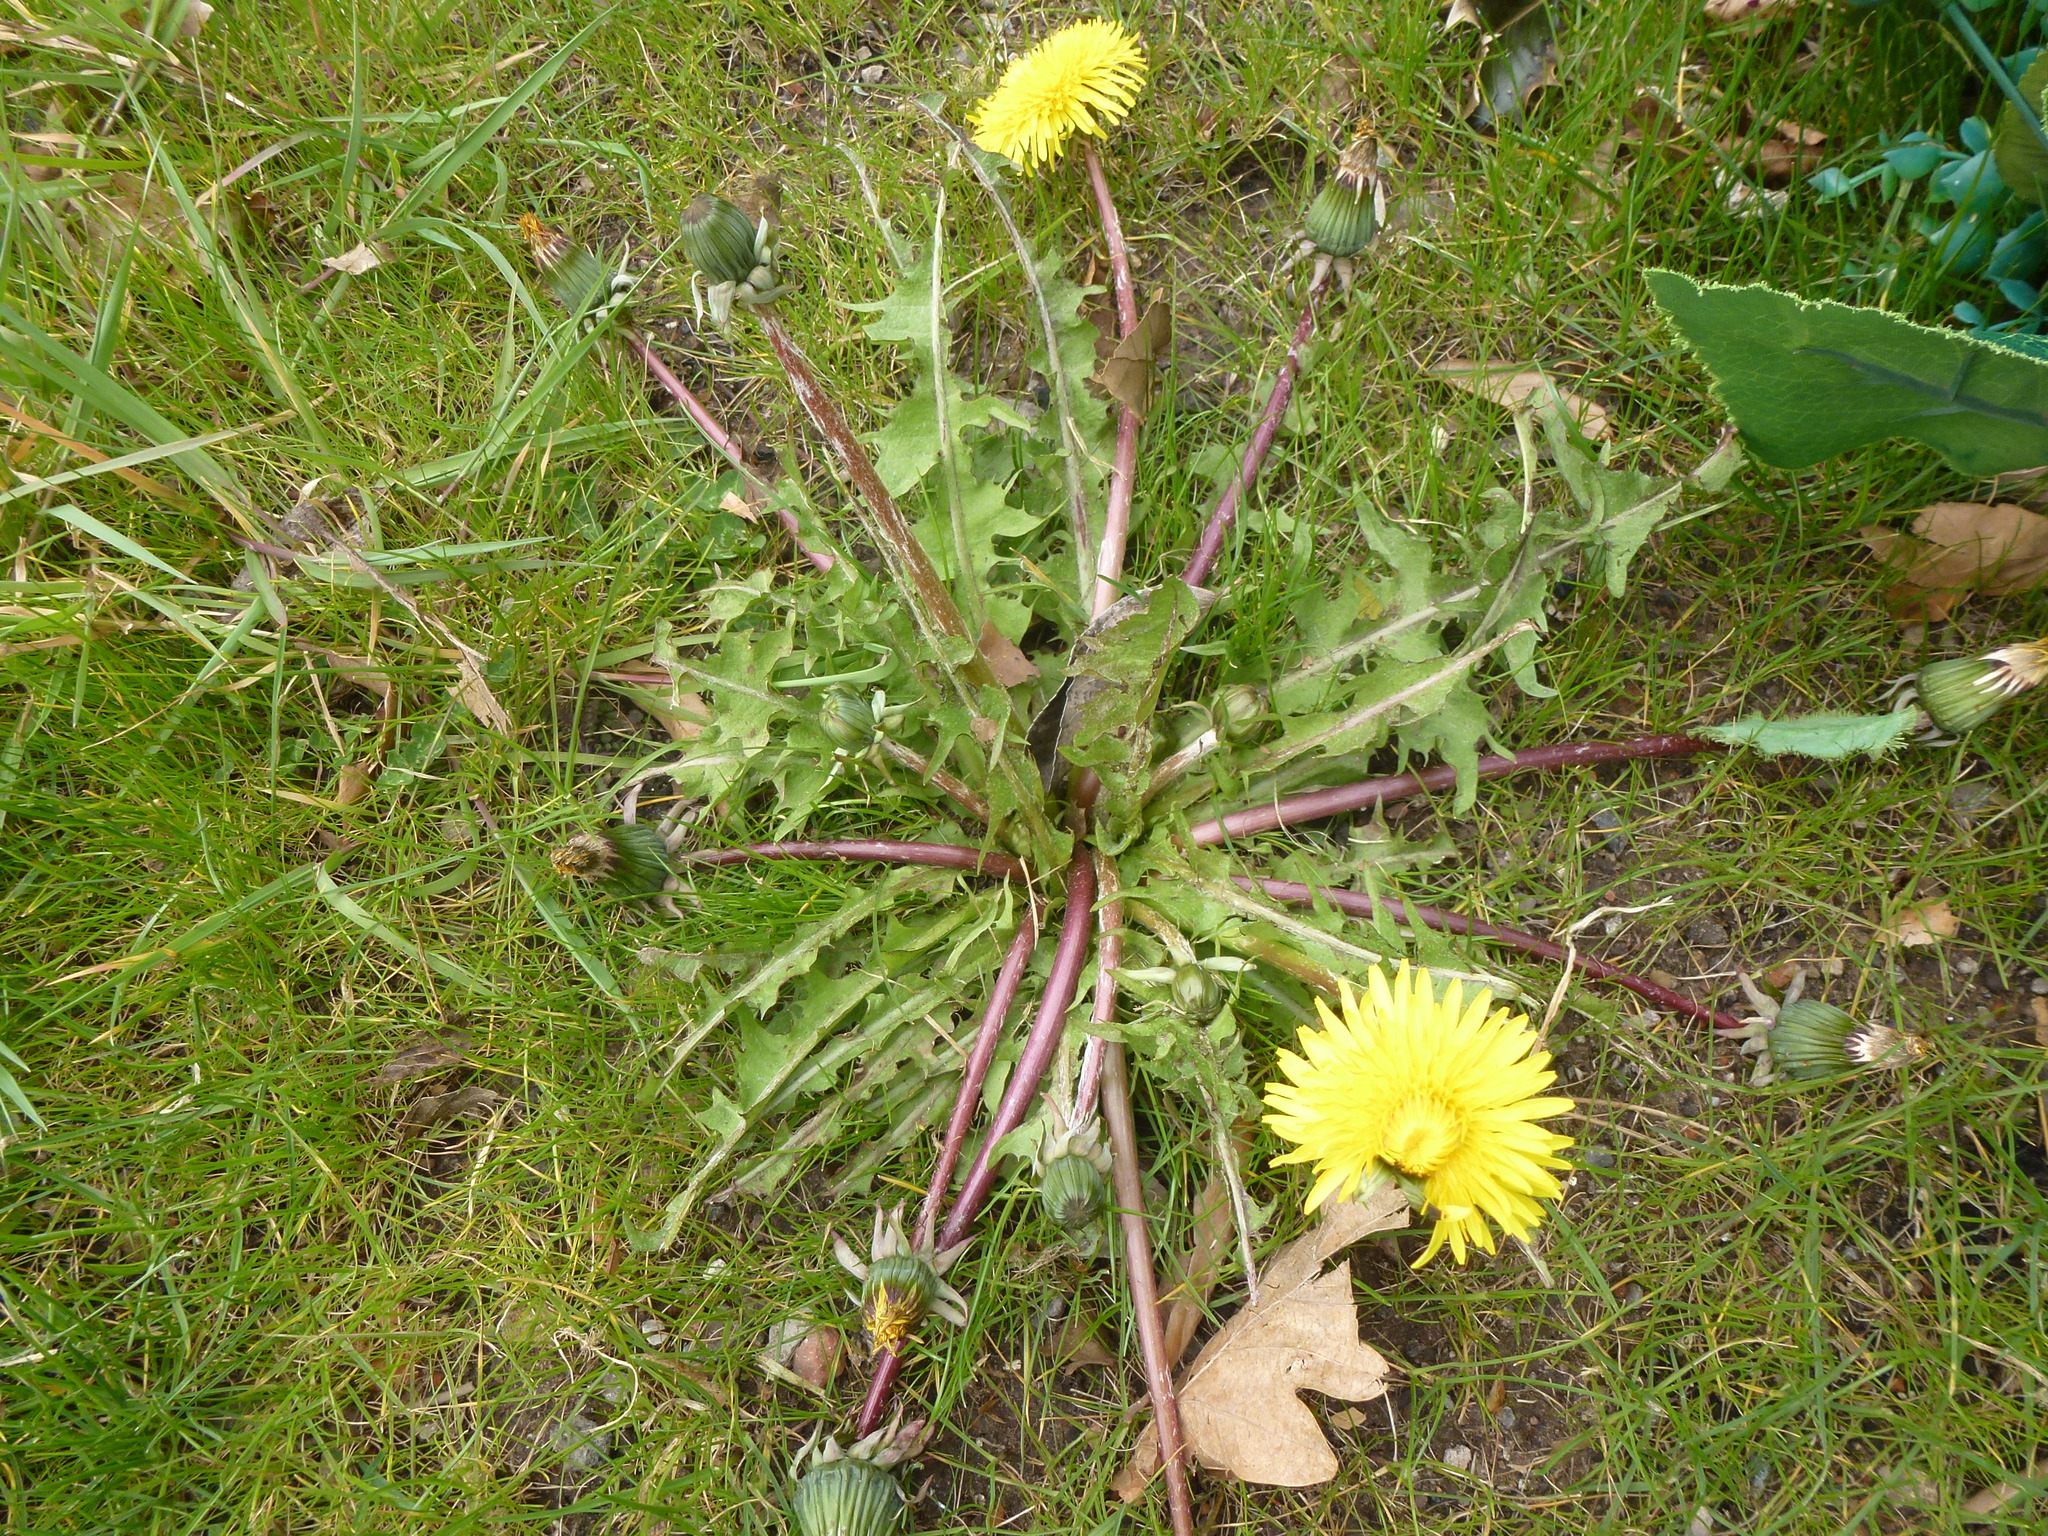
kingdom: Plantae
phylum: Tracheophyta
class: Magnoliopsida
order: Asterales
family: Asteraceae
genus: Taraxacum
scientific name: Taraxacum officinale
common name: Common dandelion
